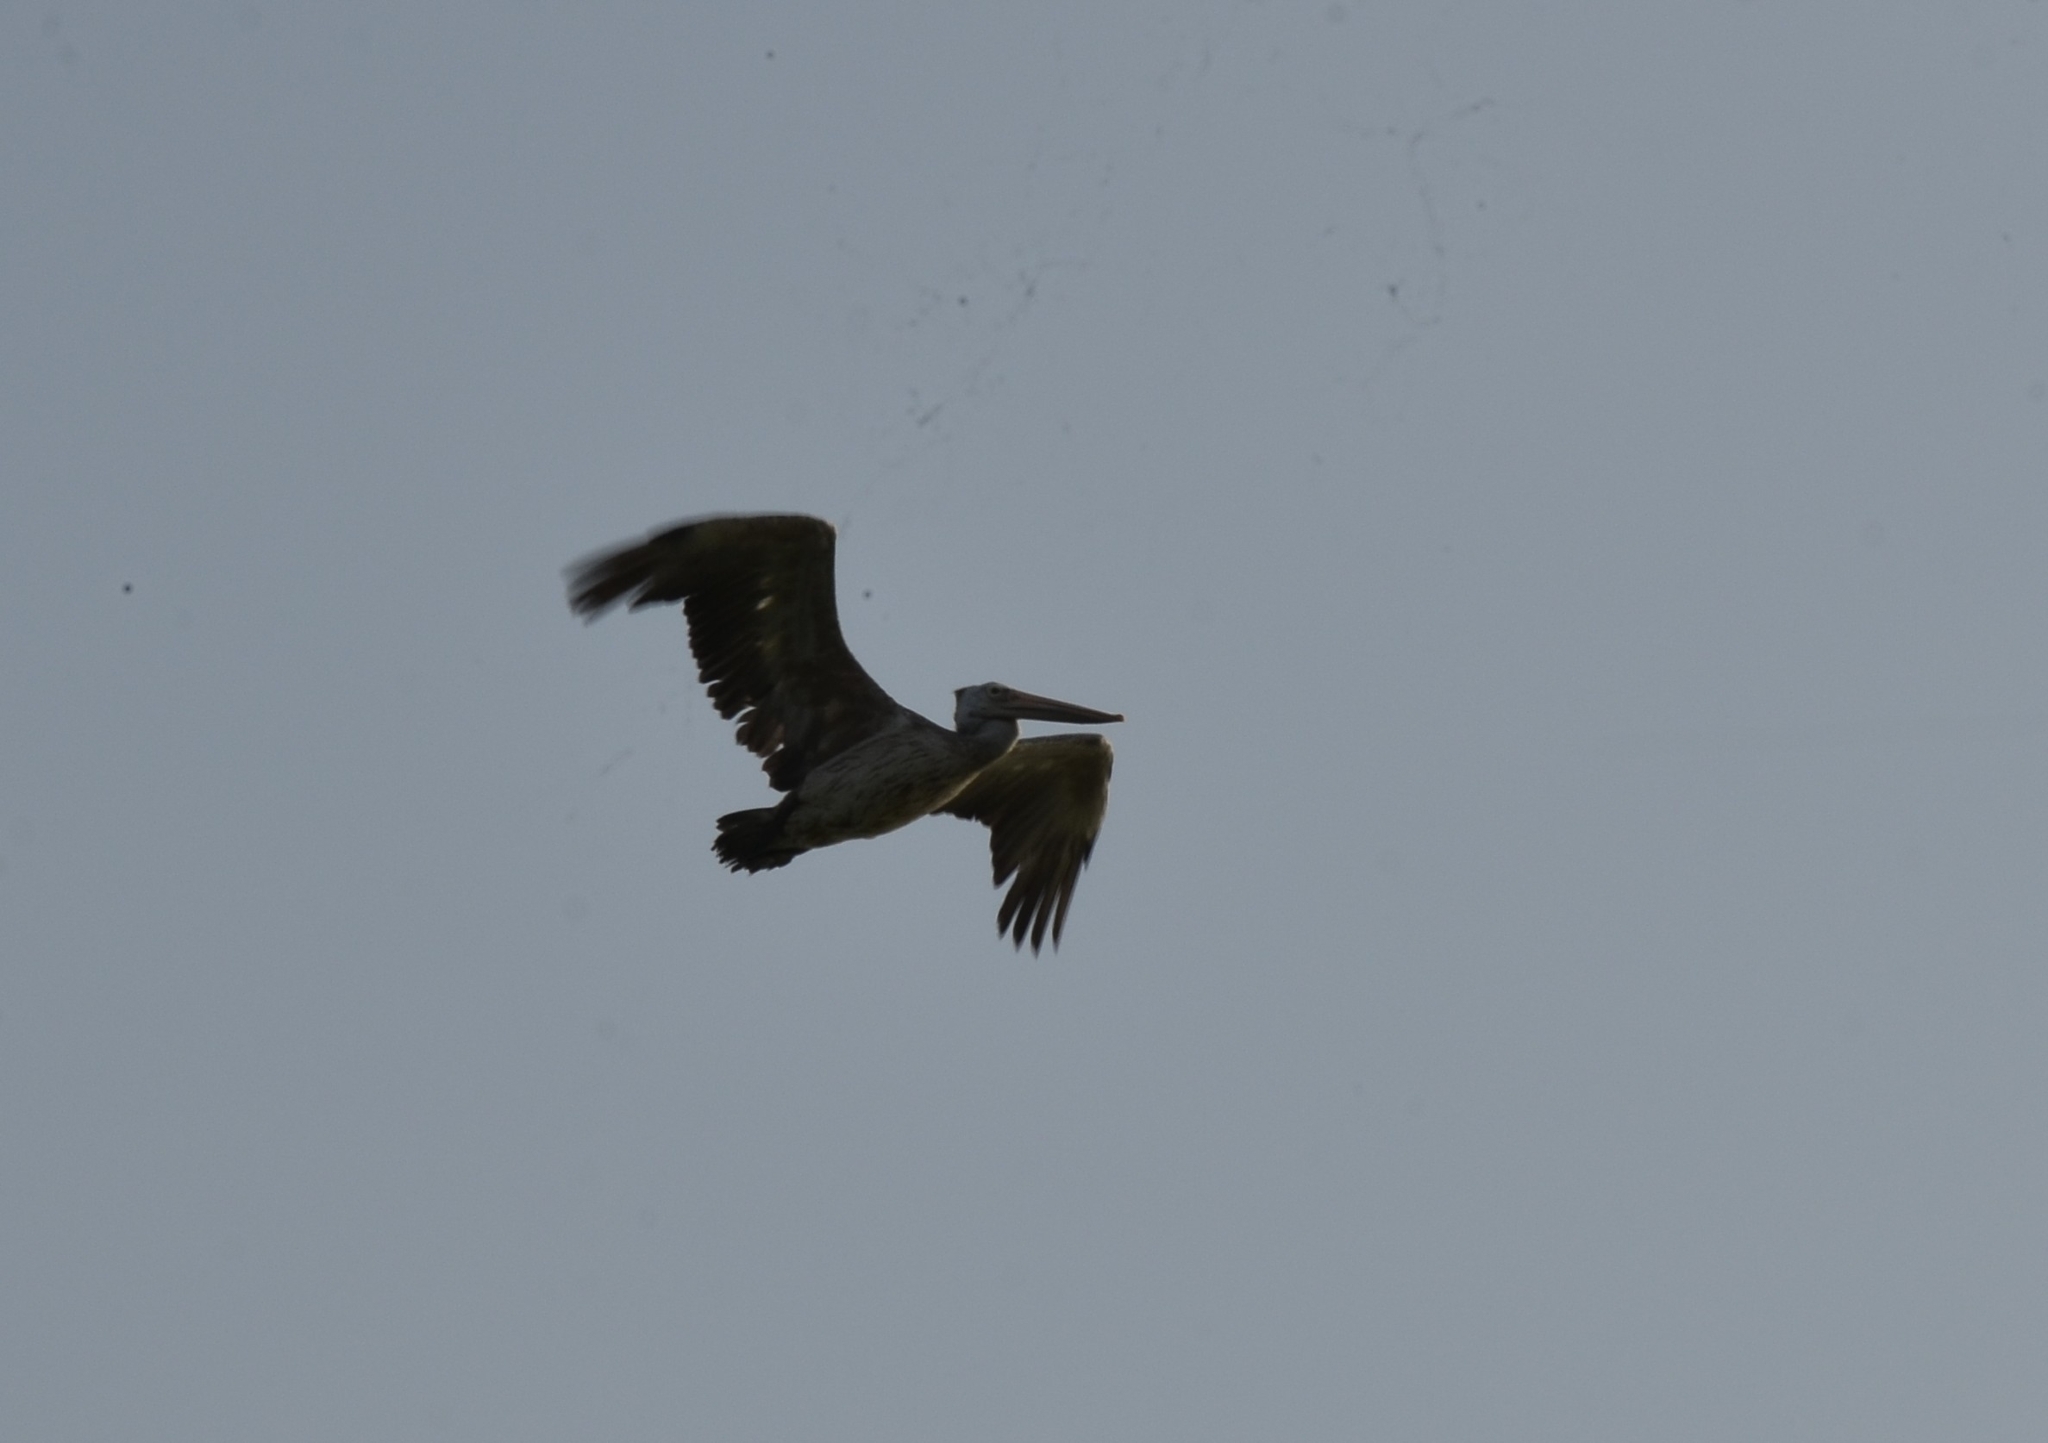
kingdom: Animalia
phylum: Chordata
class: Aves
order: Pelecaniformes
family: Pelecanidae
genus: Pelecanus
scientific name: Pelecanus philippensis
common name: Spot-billed pelican
